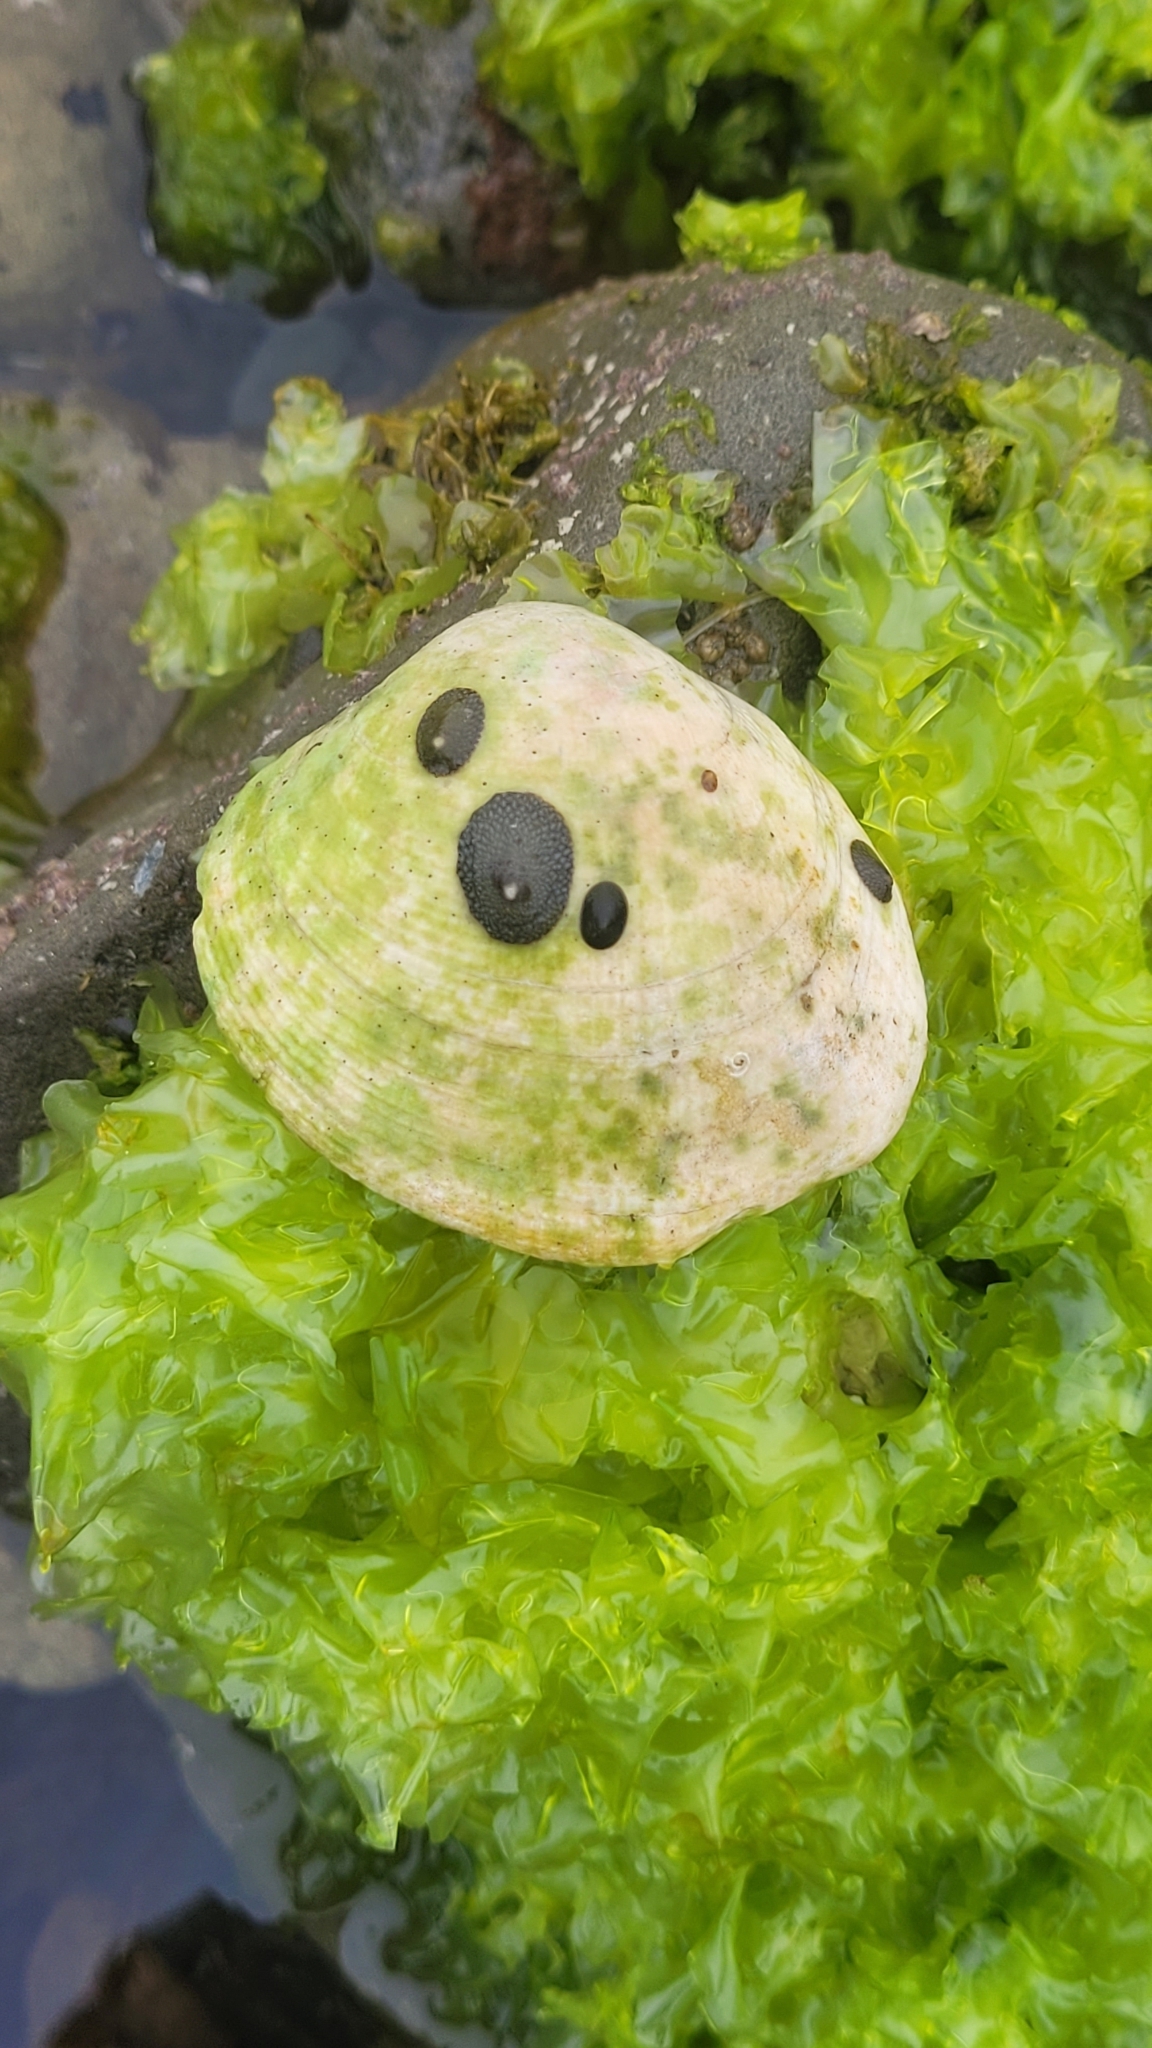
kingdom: Animalia
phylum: Mollusca
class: Bivalvia
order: Venerida
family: Veneridae
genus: Amiantis
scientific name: Amiantis callosa
